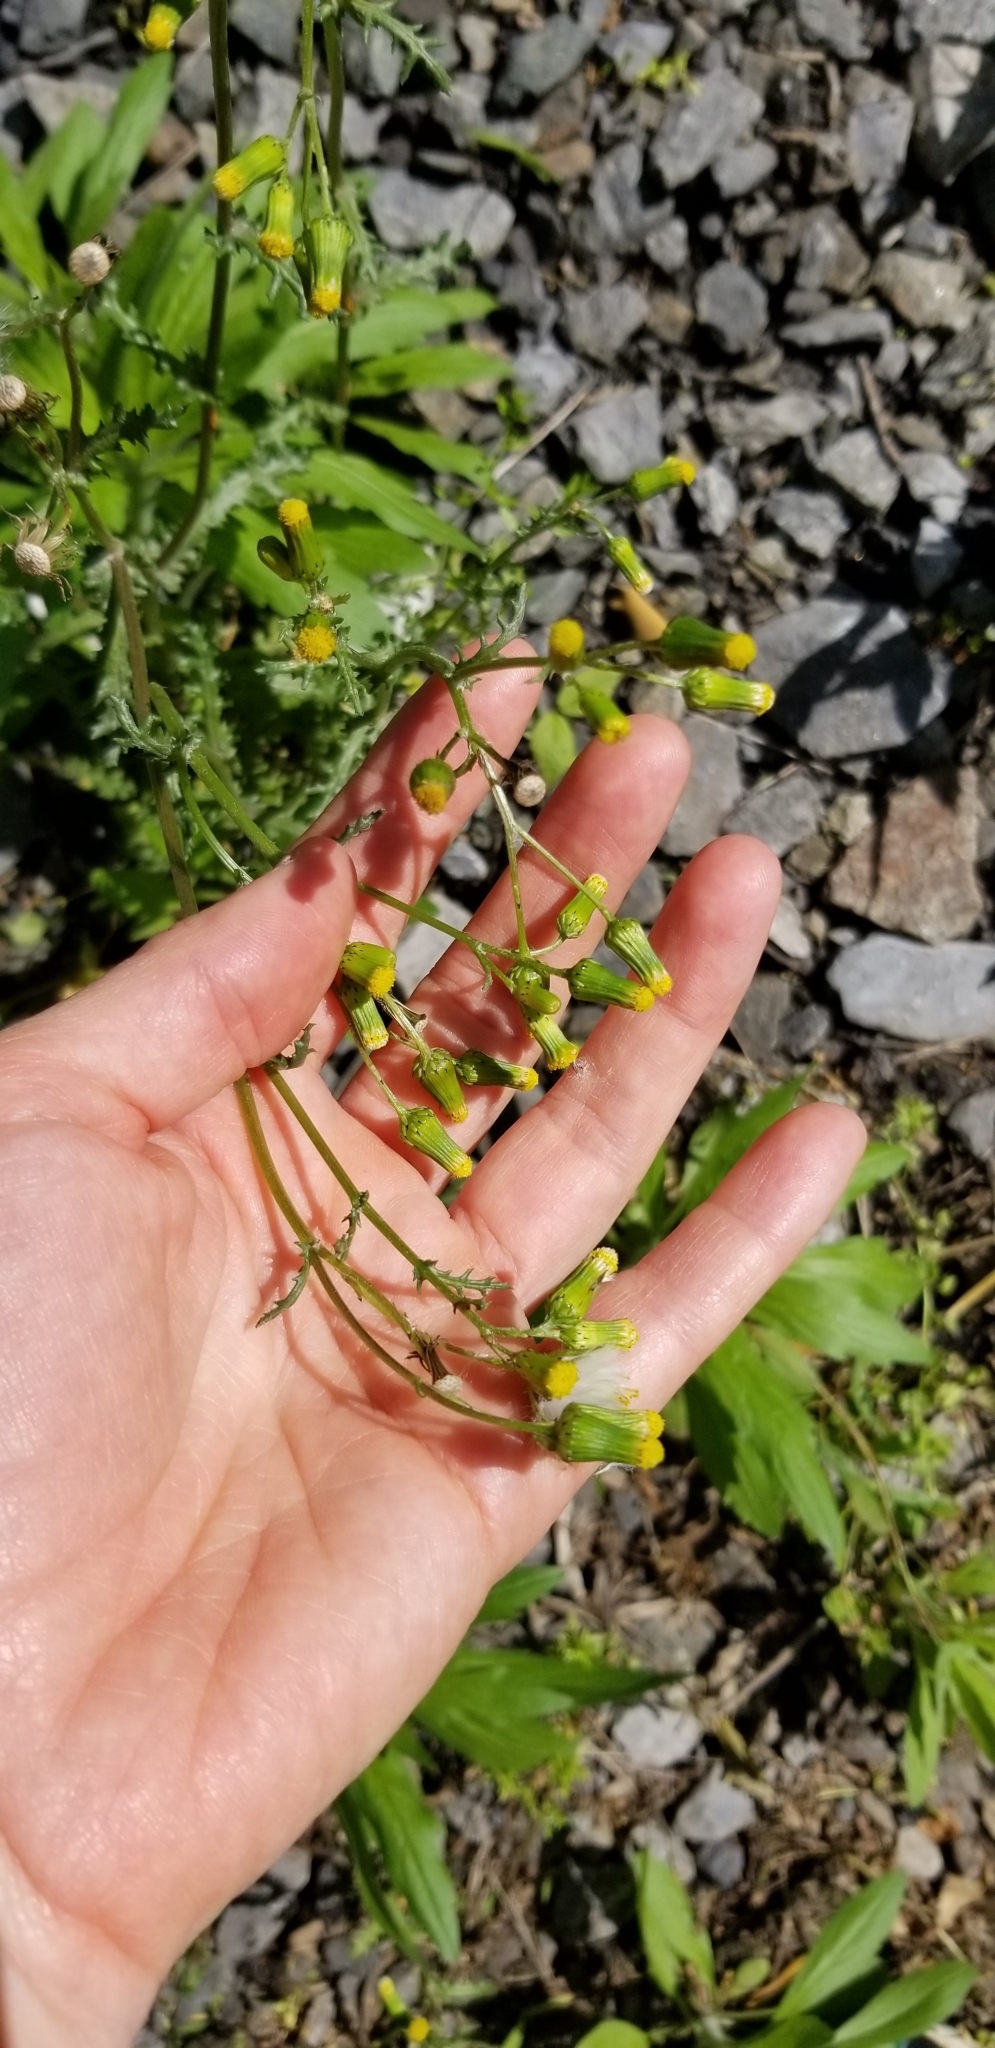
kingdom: Plantae
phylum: Tracheophyta
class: Magnoliopsida
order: Asterales
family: Asteraceae
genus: Senecio
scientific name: Senecio vulgaris
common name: Old-man-in-the-spring
